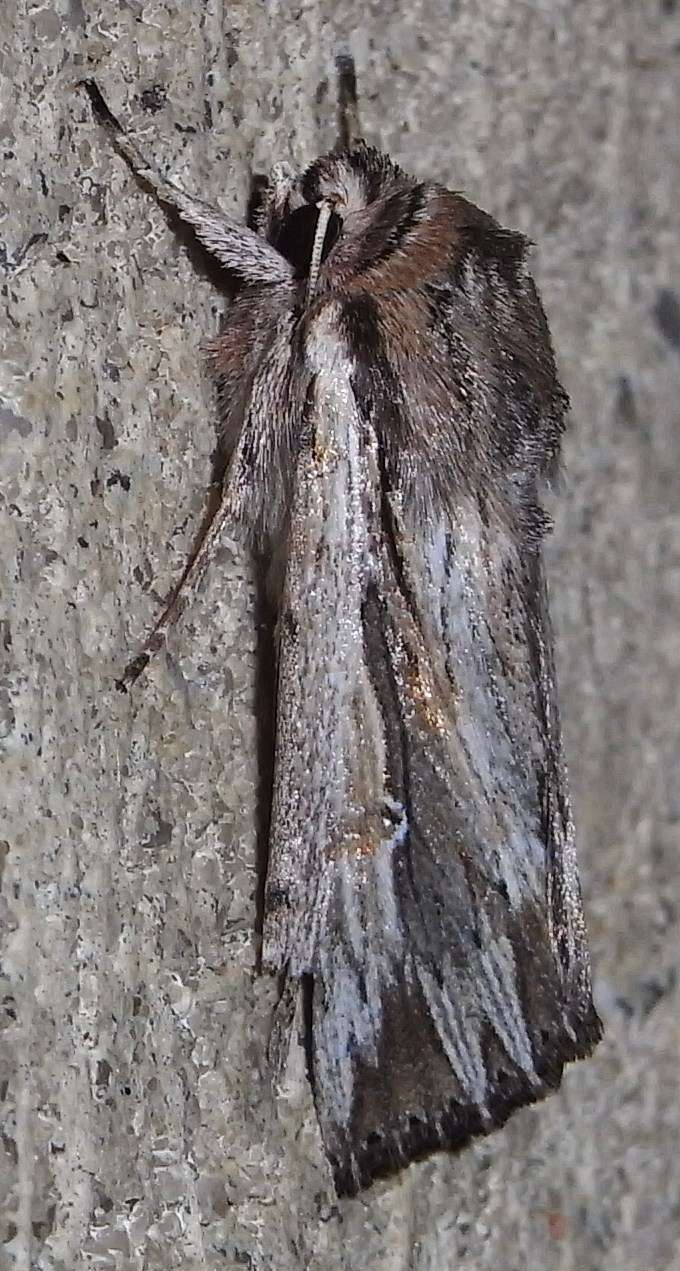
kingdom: Animalia
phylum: Arthropoda
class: Insecta
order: Lepidoptera
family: Noctuidae
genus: Persectania
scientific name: Persectania ewingii
